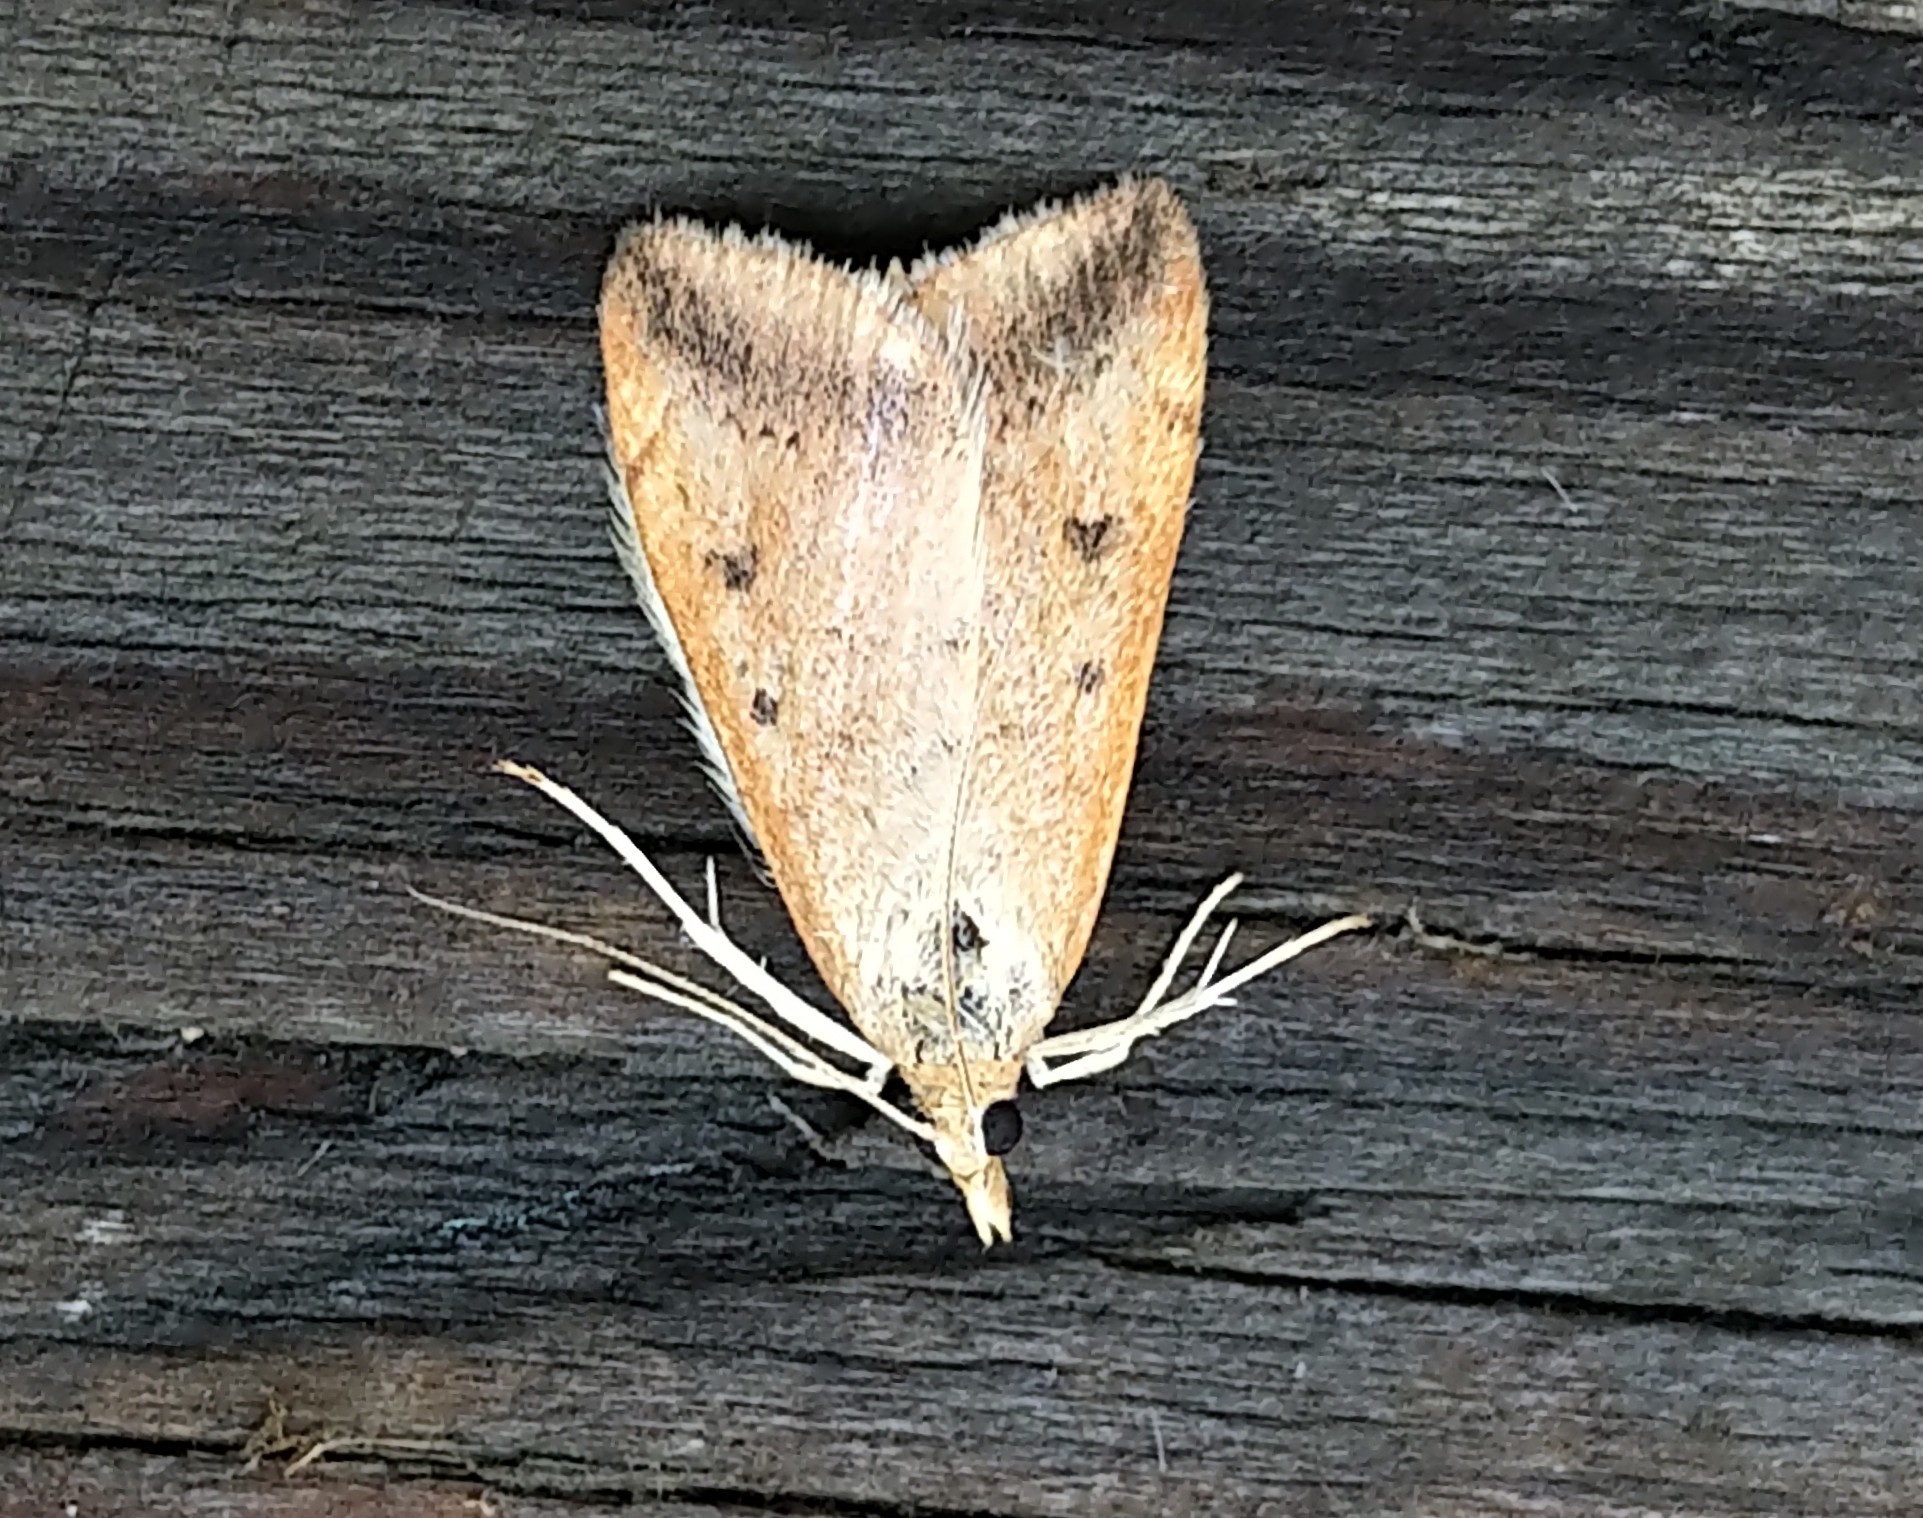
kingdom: Animalia
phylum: Arthropoda
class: Insecta
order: Lepidoptera
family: Crambidae
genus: Pyrausta
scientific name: Pyrausta fodinalis
